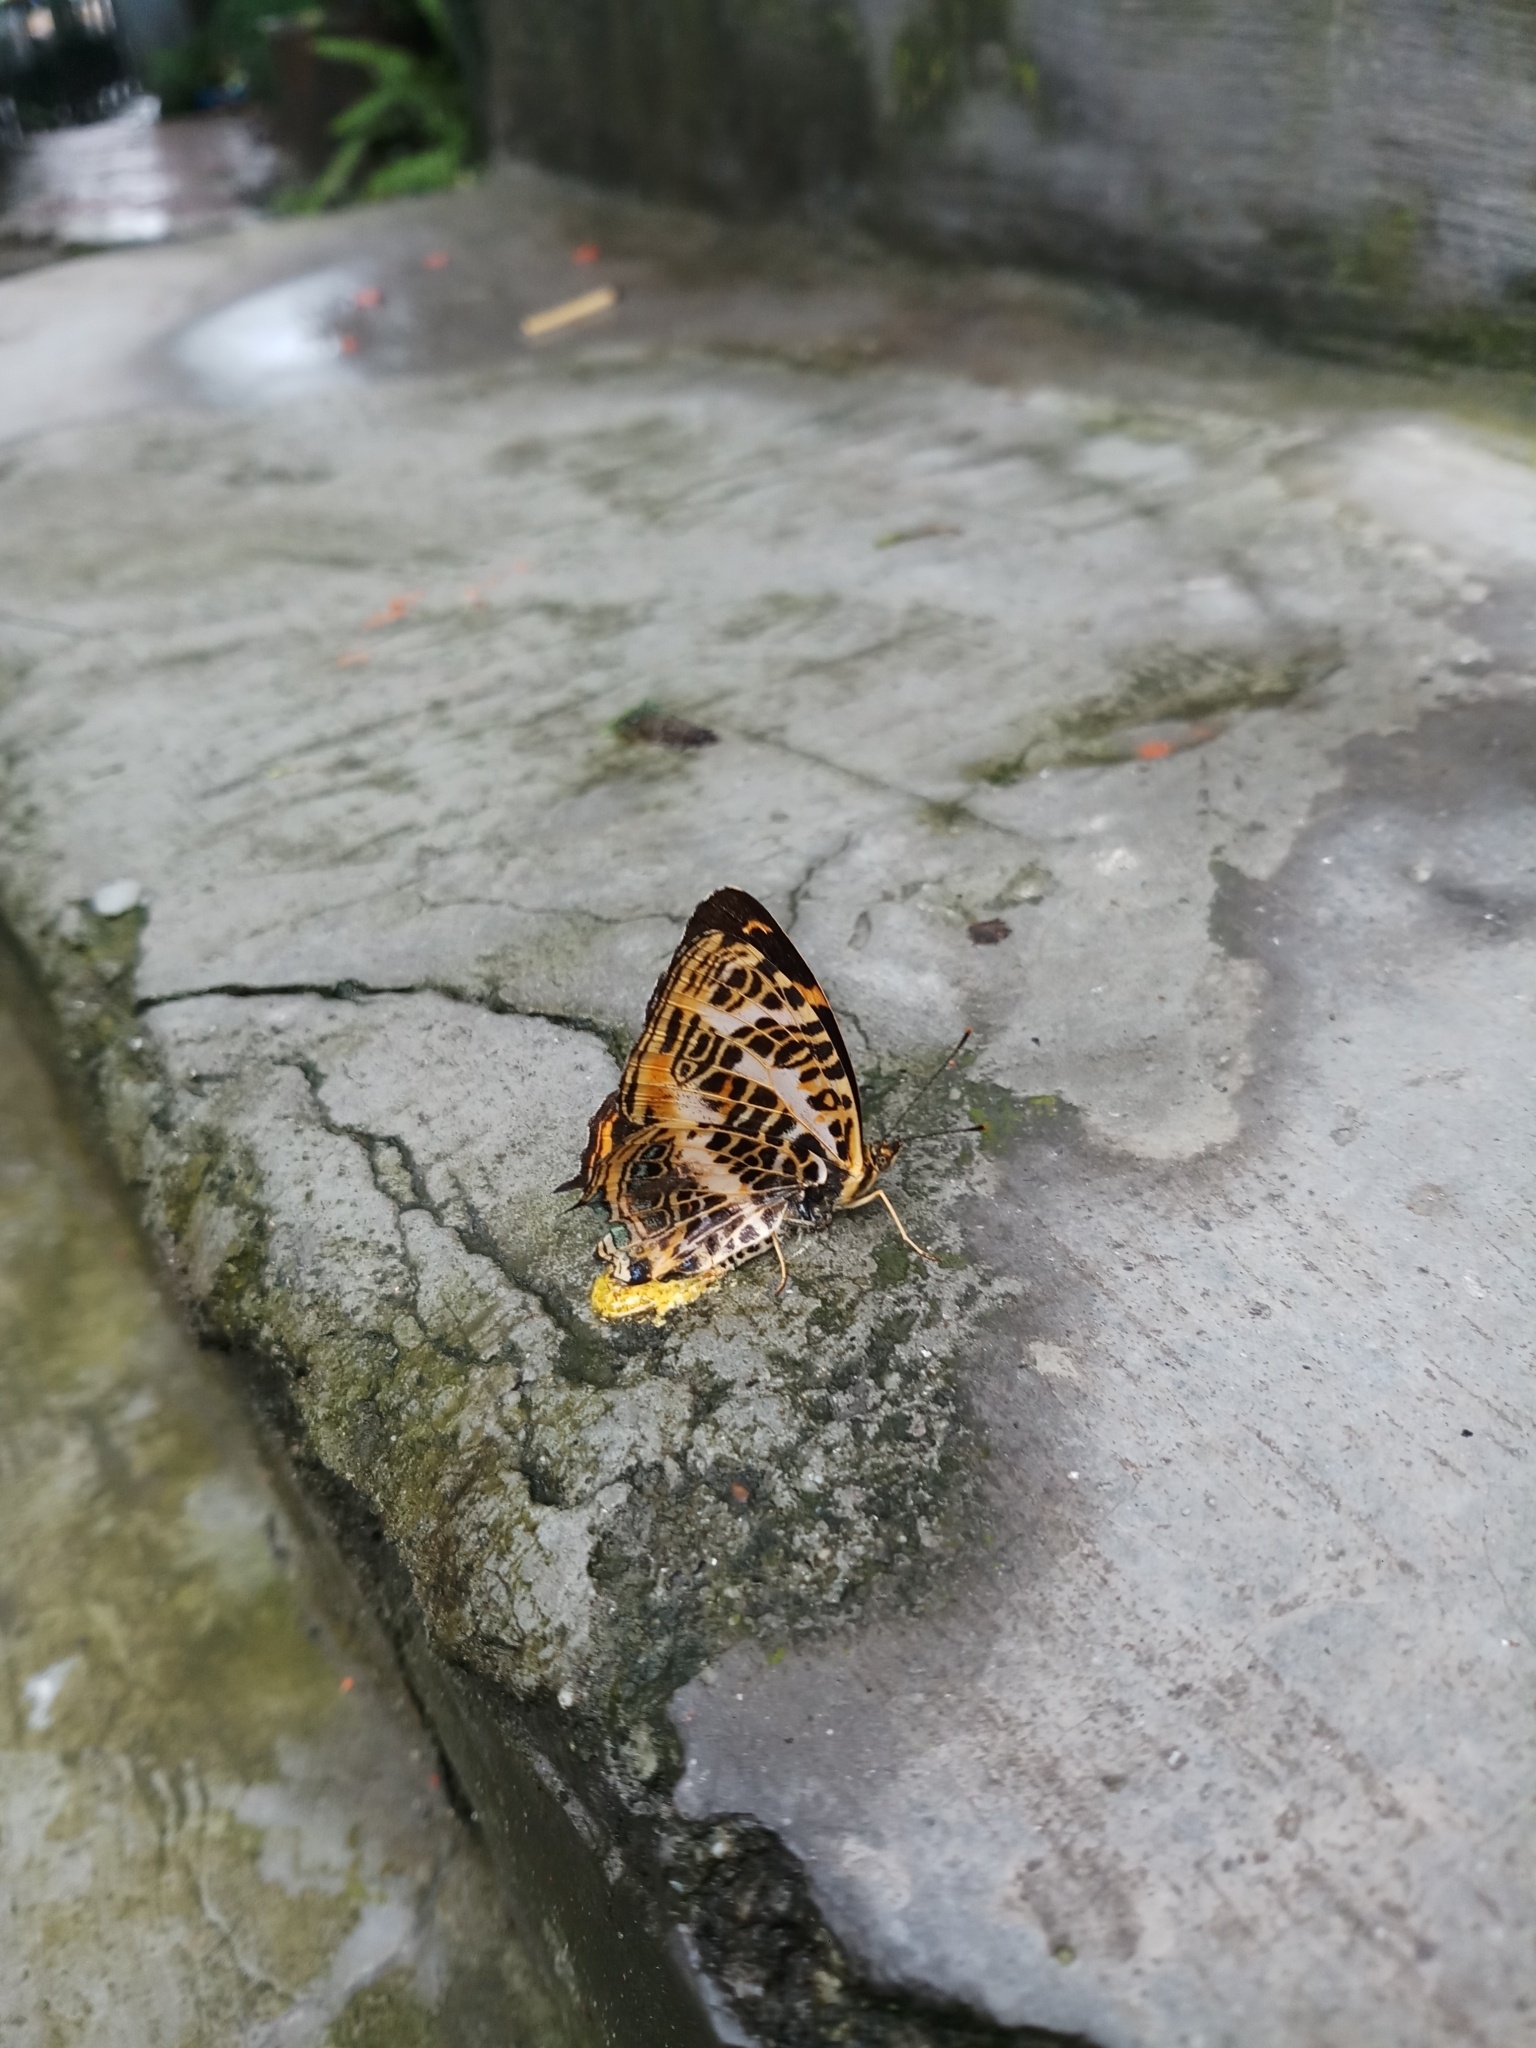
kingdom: Animalia
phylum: Arthropoda
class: Insecta
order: Lepidoptera
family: Nymphalidae
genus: Symbrenthia
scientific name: Symbrenthia niphanda
